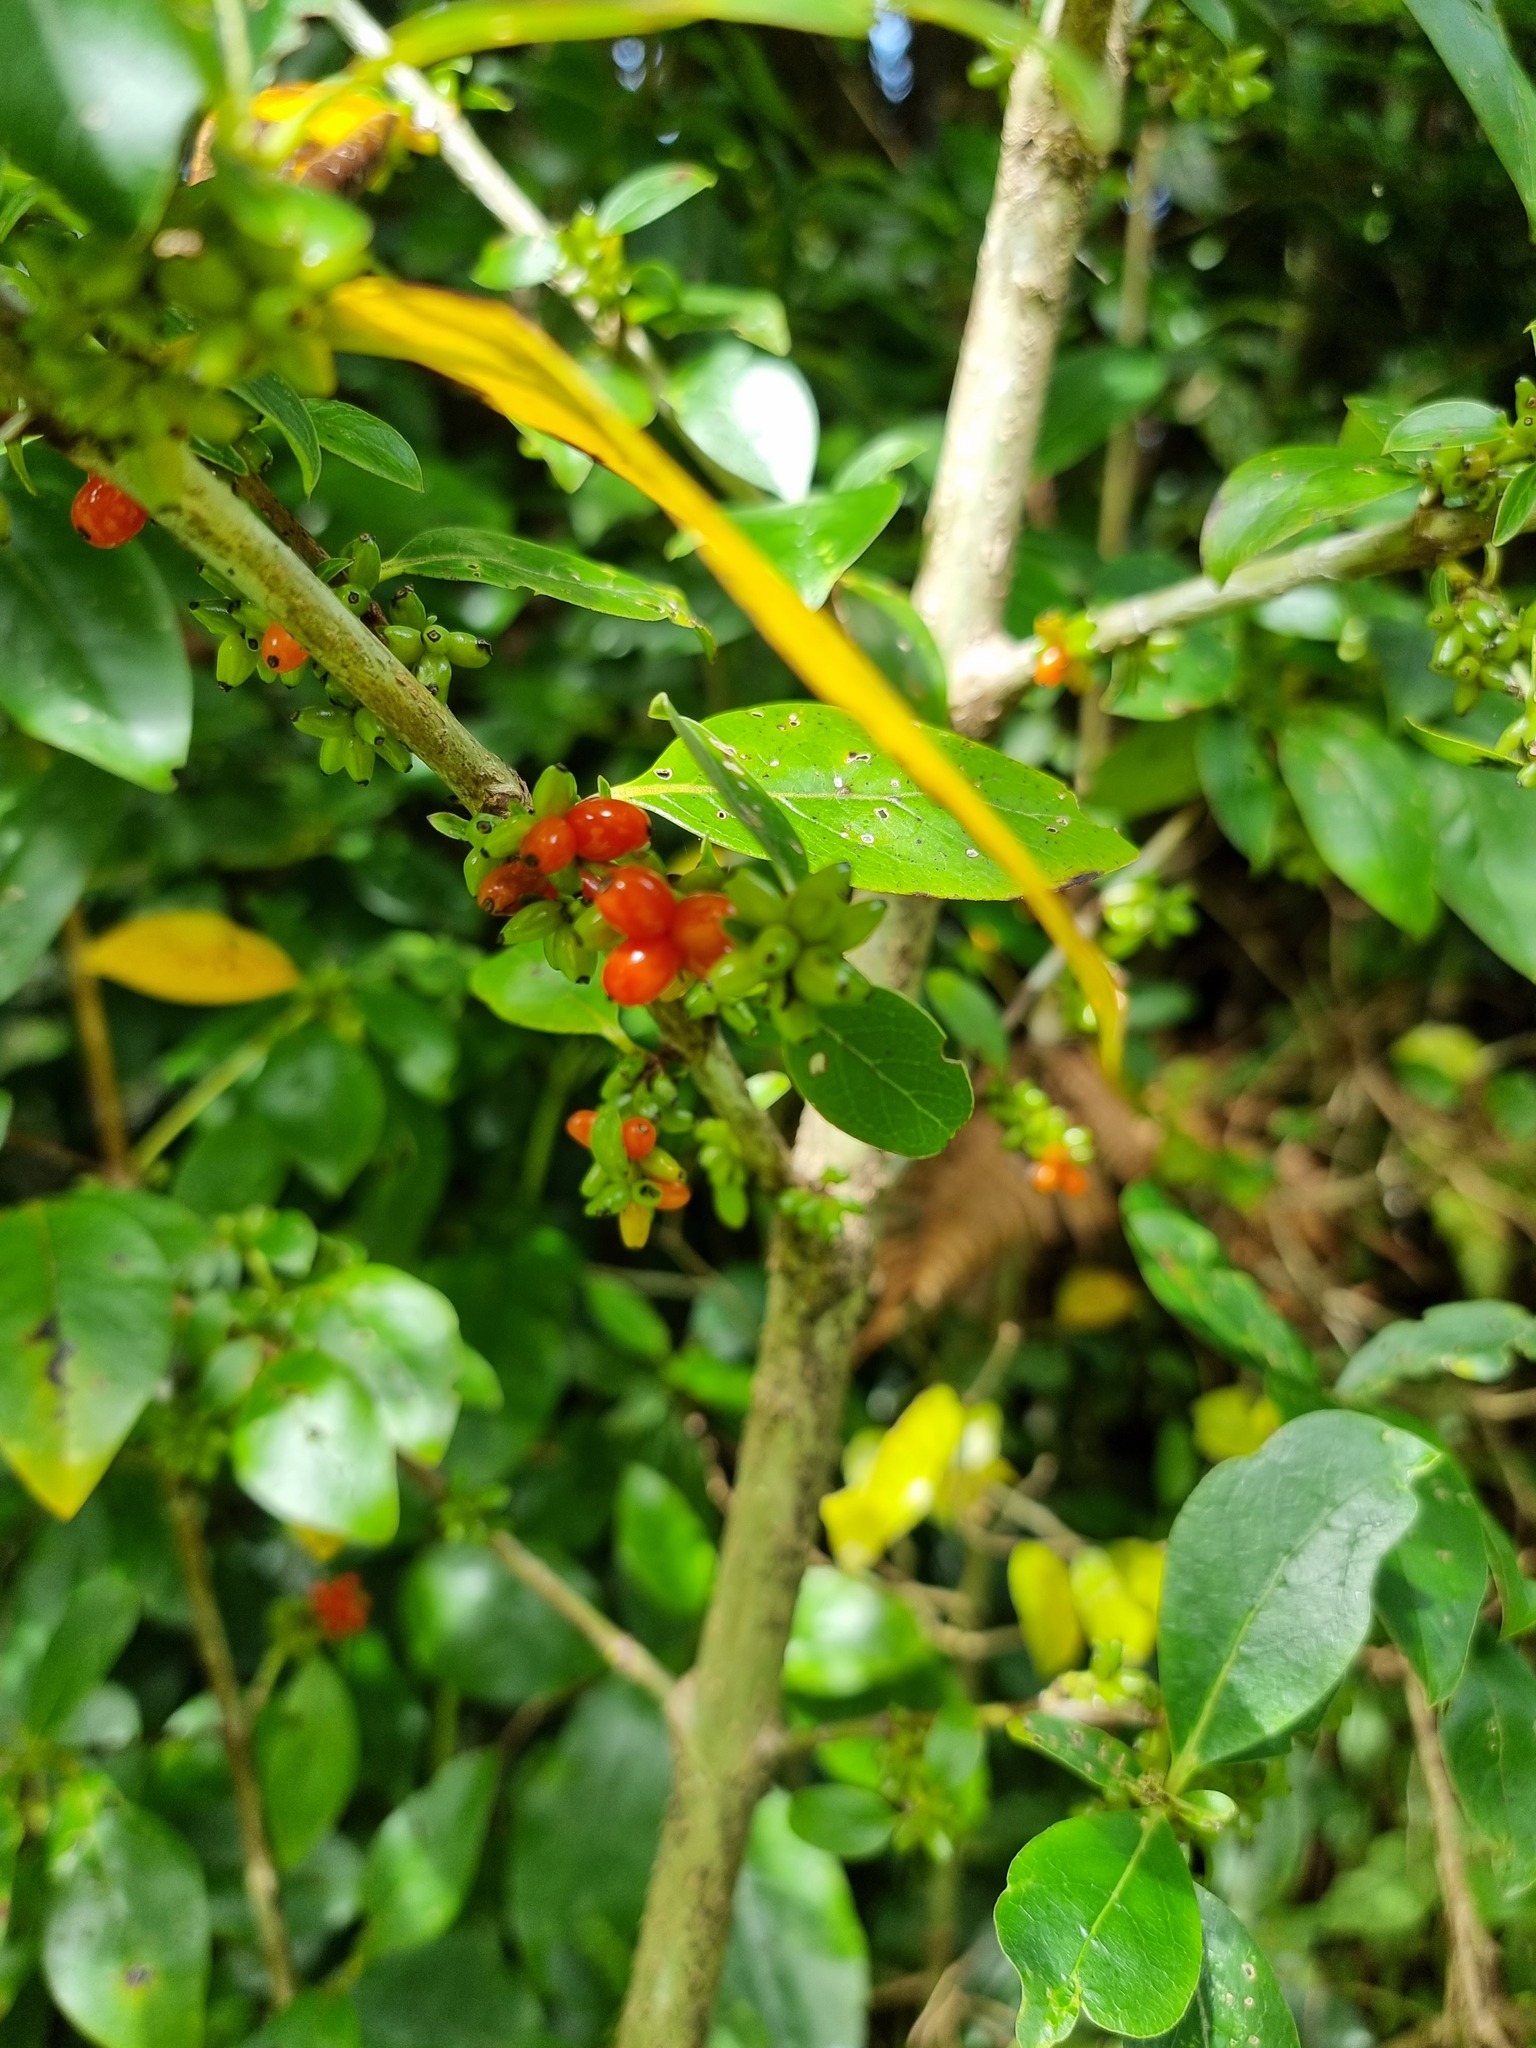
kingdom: Plantae
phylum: Tracheophyta
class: Magnoliopsida
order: Gentianales
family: Rubiaceae
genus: Coprosma
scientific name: Coprosma robusta
